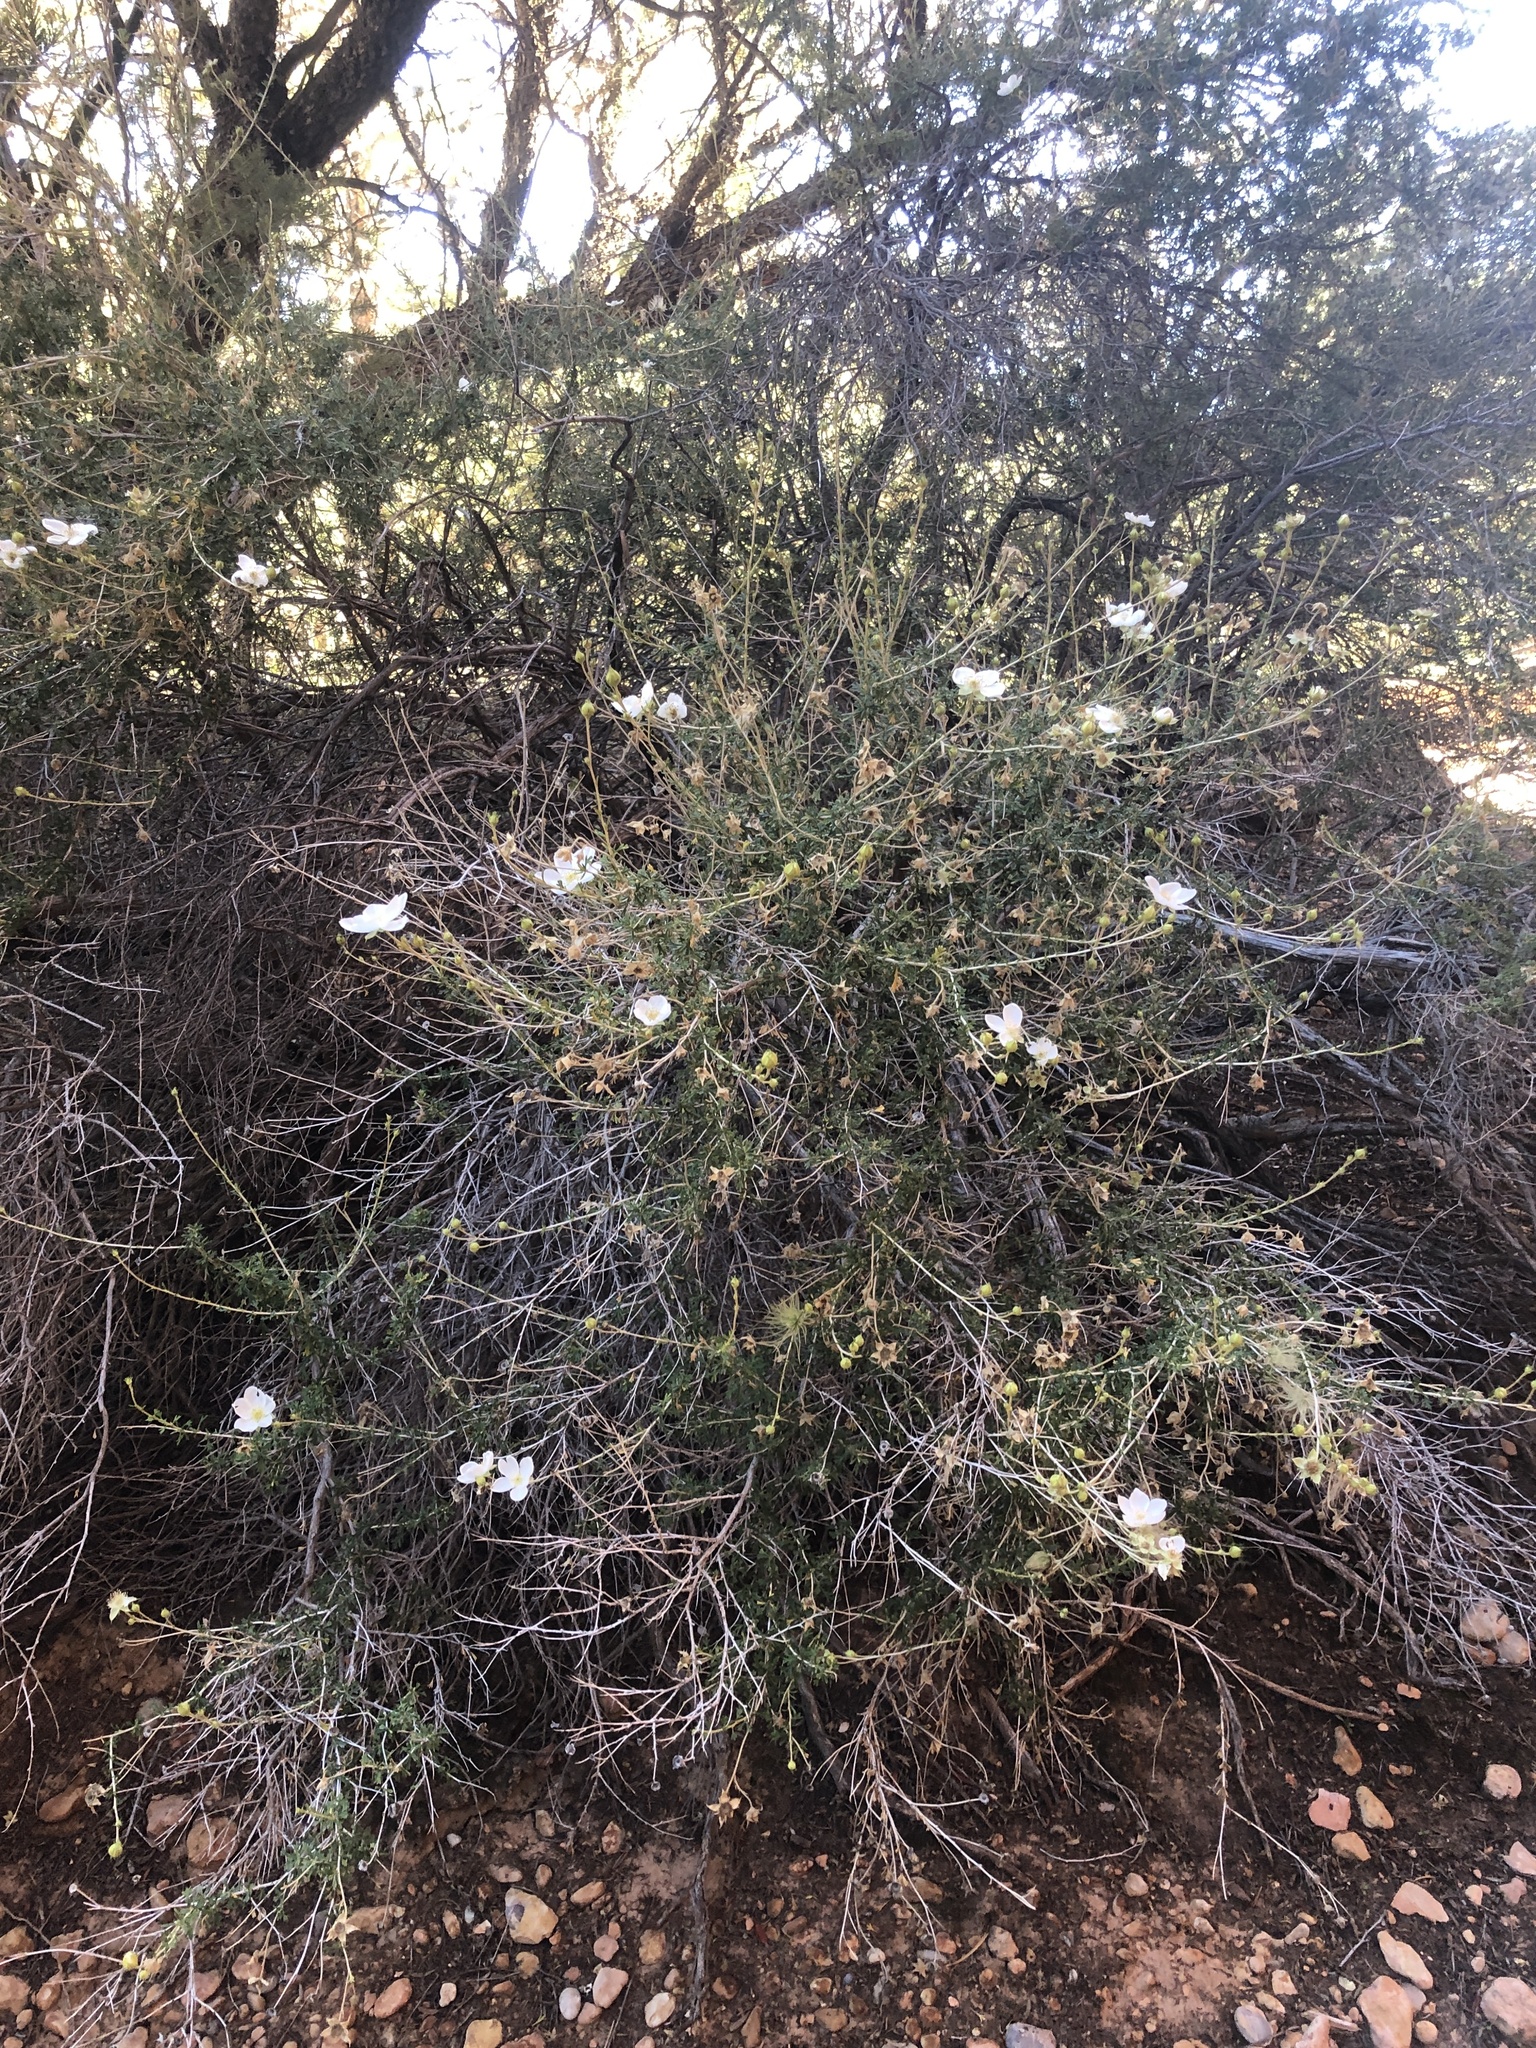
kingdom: Plantae
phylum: Tracheophyta
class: Magnoliopsida
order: Rosales
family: Rosaceae
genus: Fallugia
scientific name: Fallugia paradoxa
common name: Apache-plume
